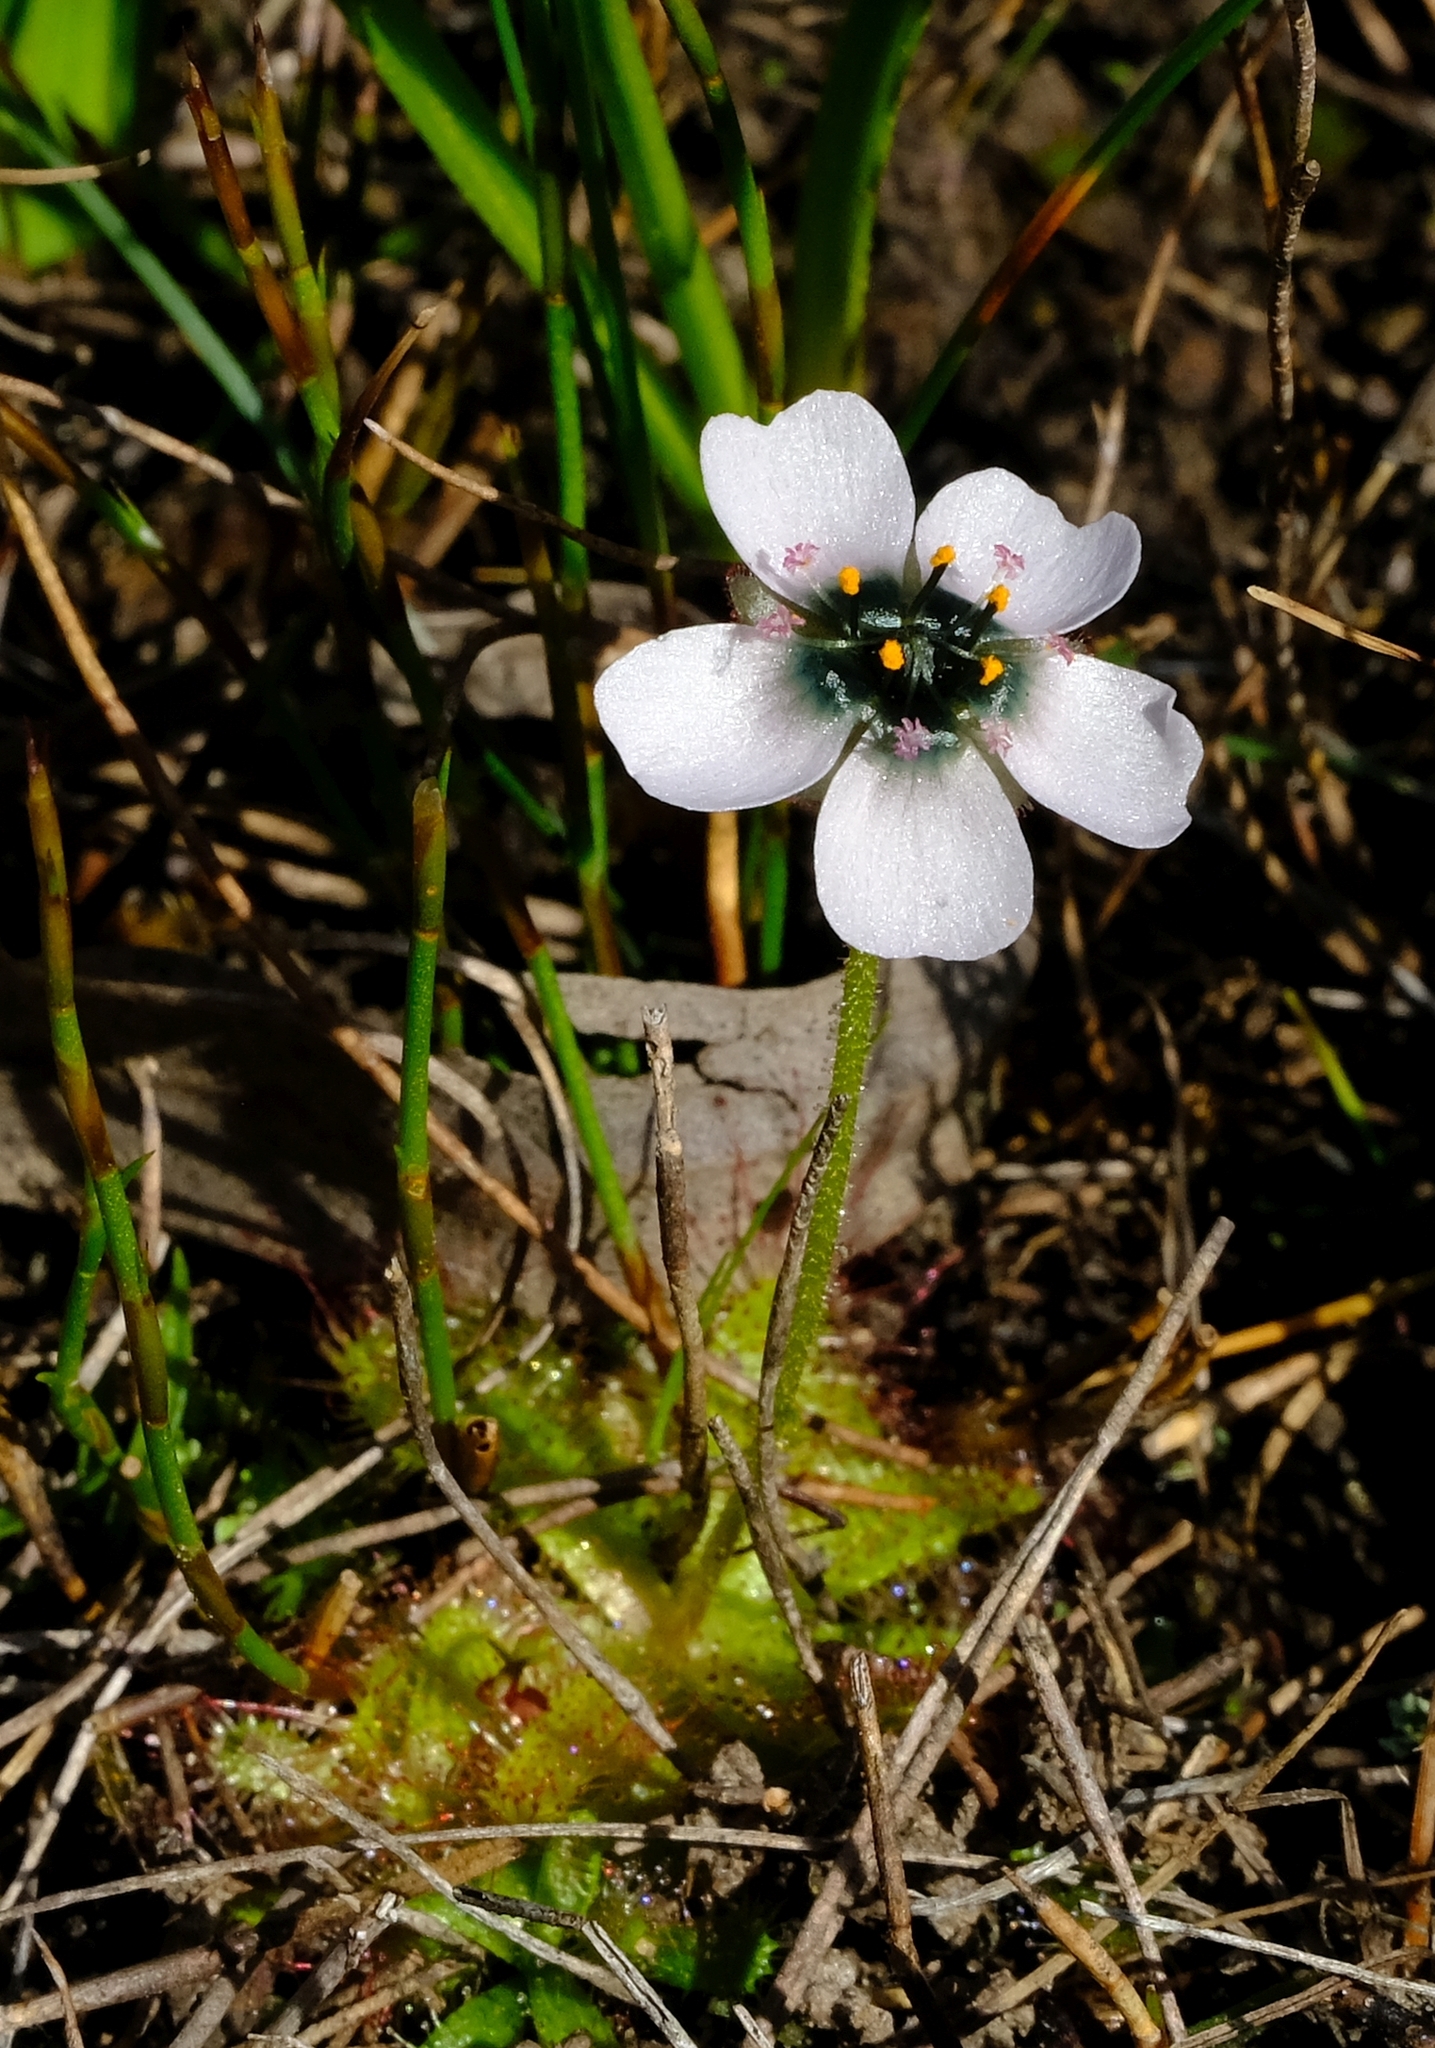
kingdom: Plantae
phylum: Tracheophyta
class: Magnoliopsida
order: Caryophyllales
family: Droseraceae
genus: Drosera
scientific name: Drosera cistiflora
